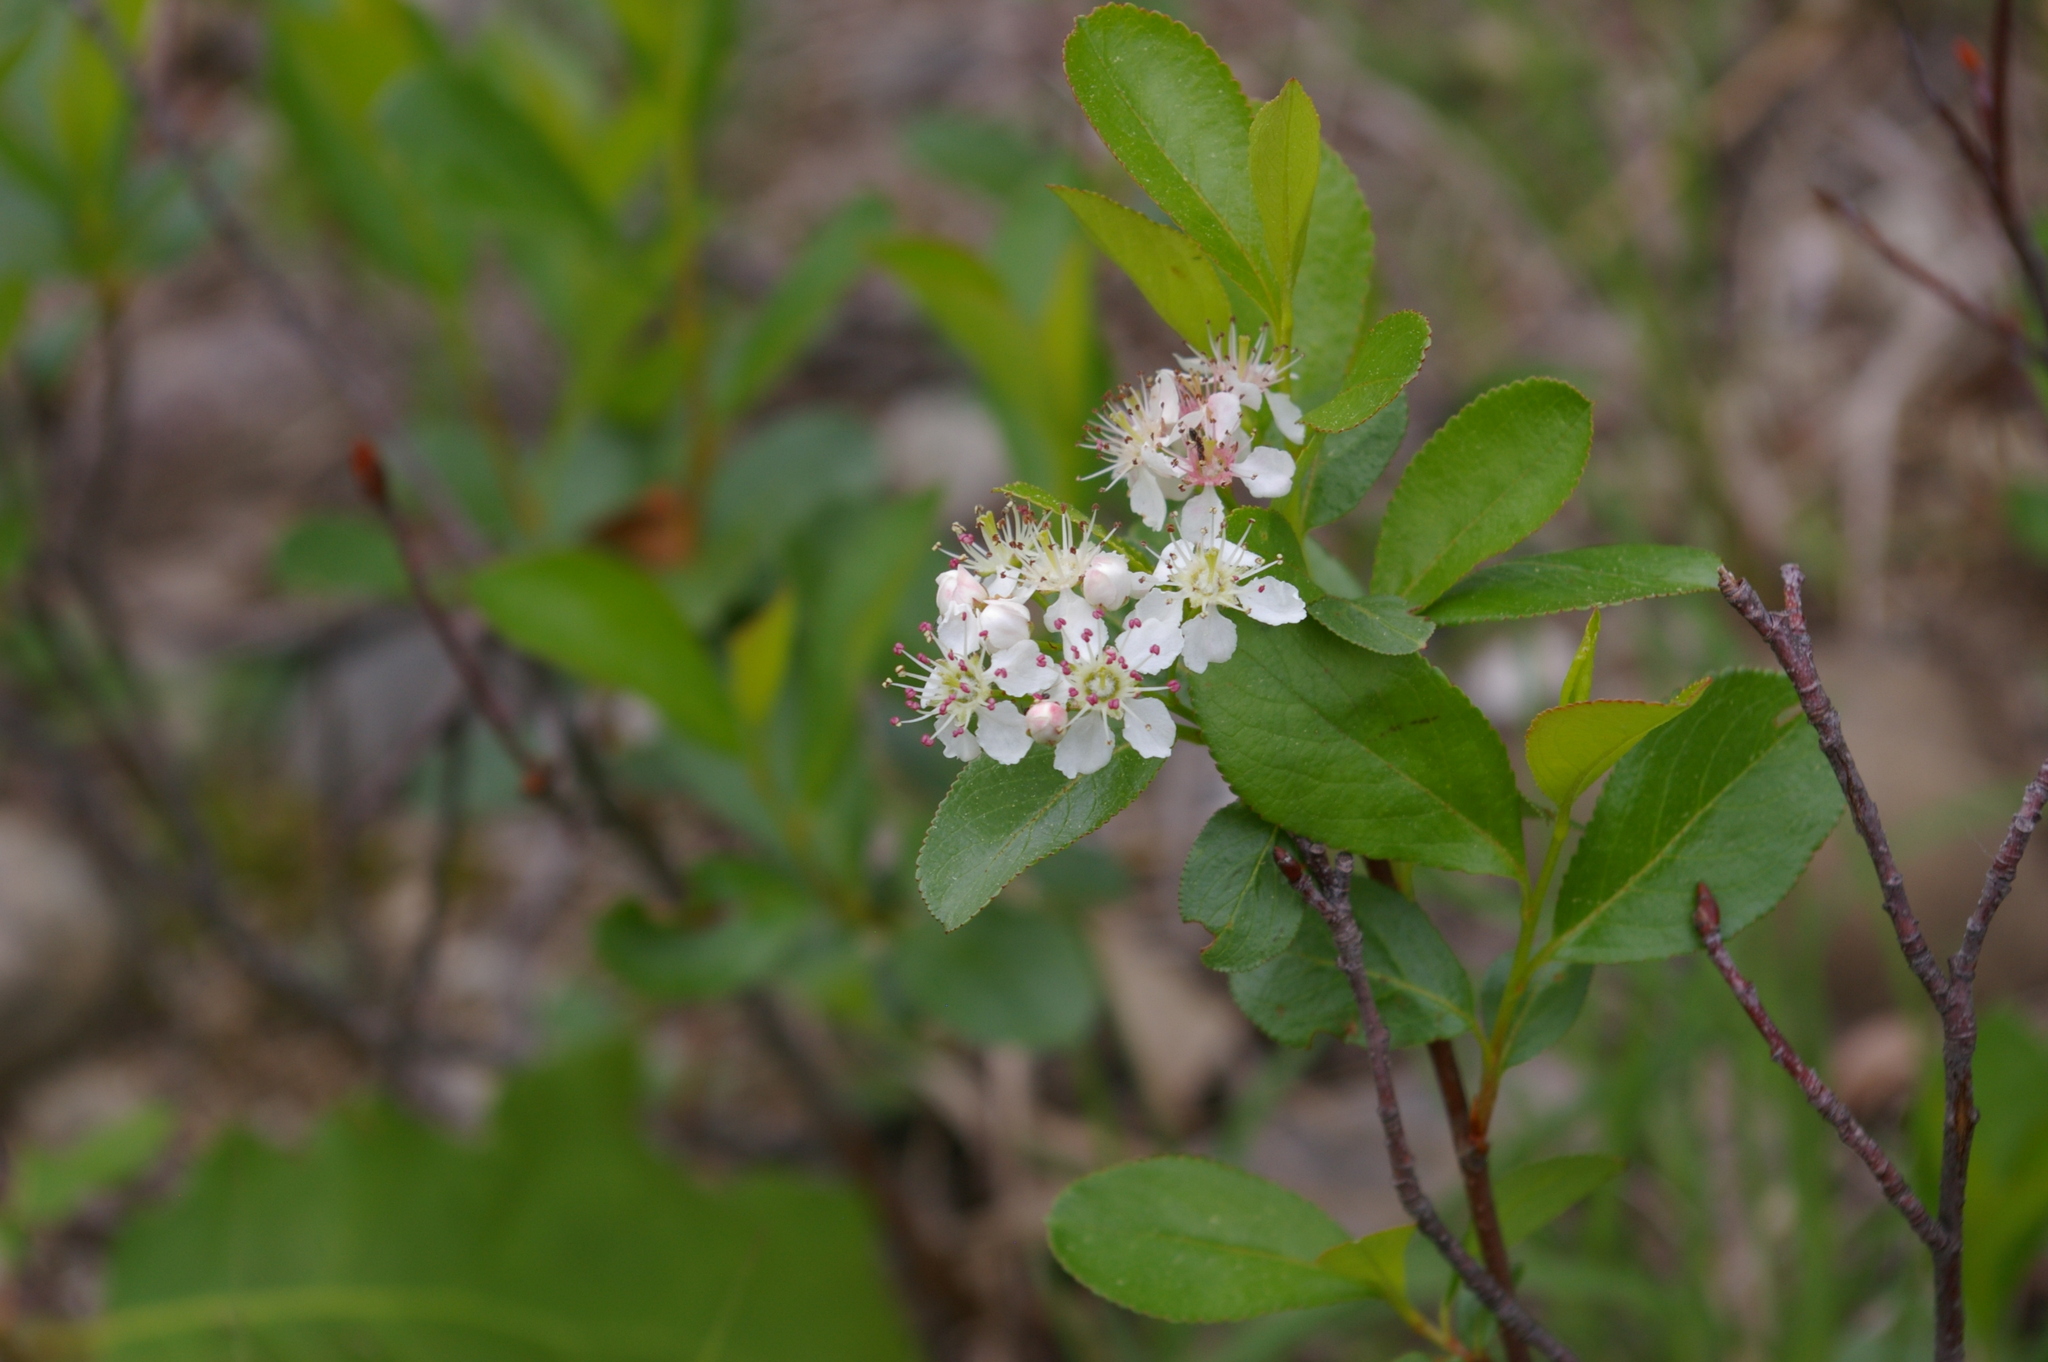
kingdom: Plantae
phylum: Tracheophyta
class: Magnoliopsida
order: Rosales
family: Rosaceae
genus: Aronia
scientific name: Aronia melanocarpa
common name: Black chokeberry
